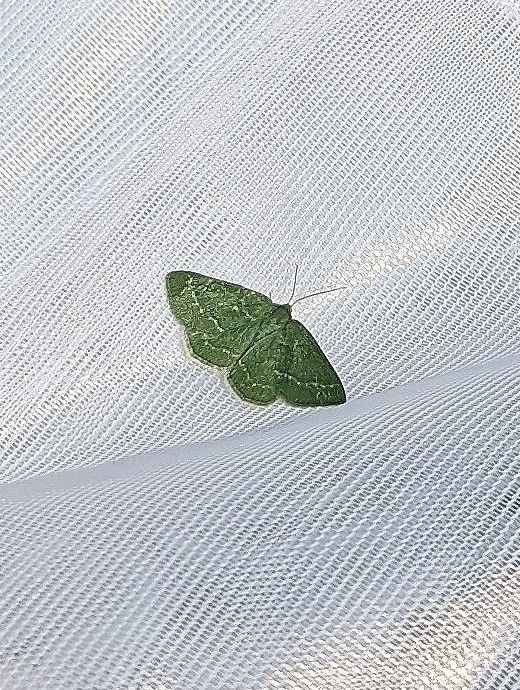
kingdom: Animalia
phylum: Arthropoda
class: Insecta
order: Lepidoptera
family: Geometridae
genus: Thalera
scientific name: Thalera pistasciaria
